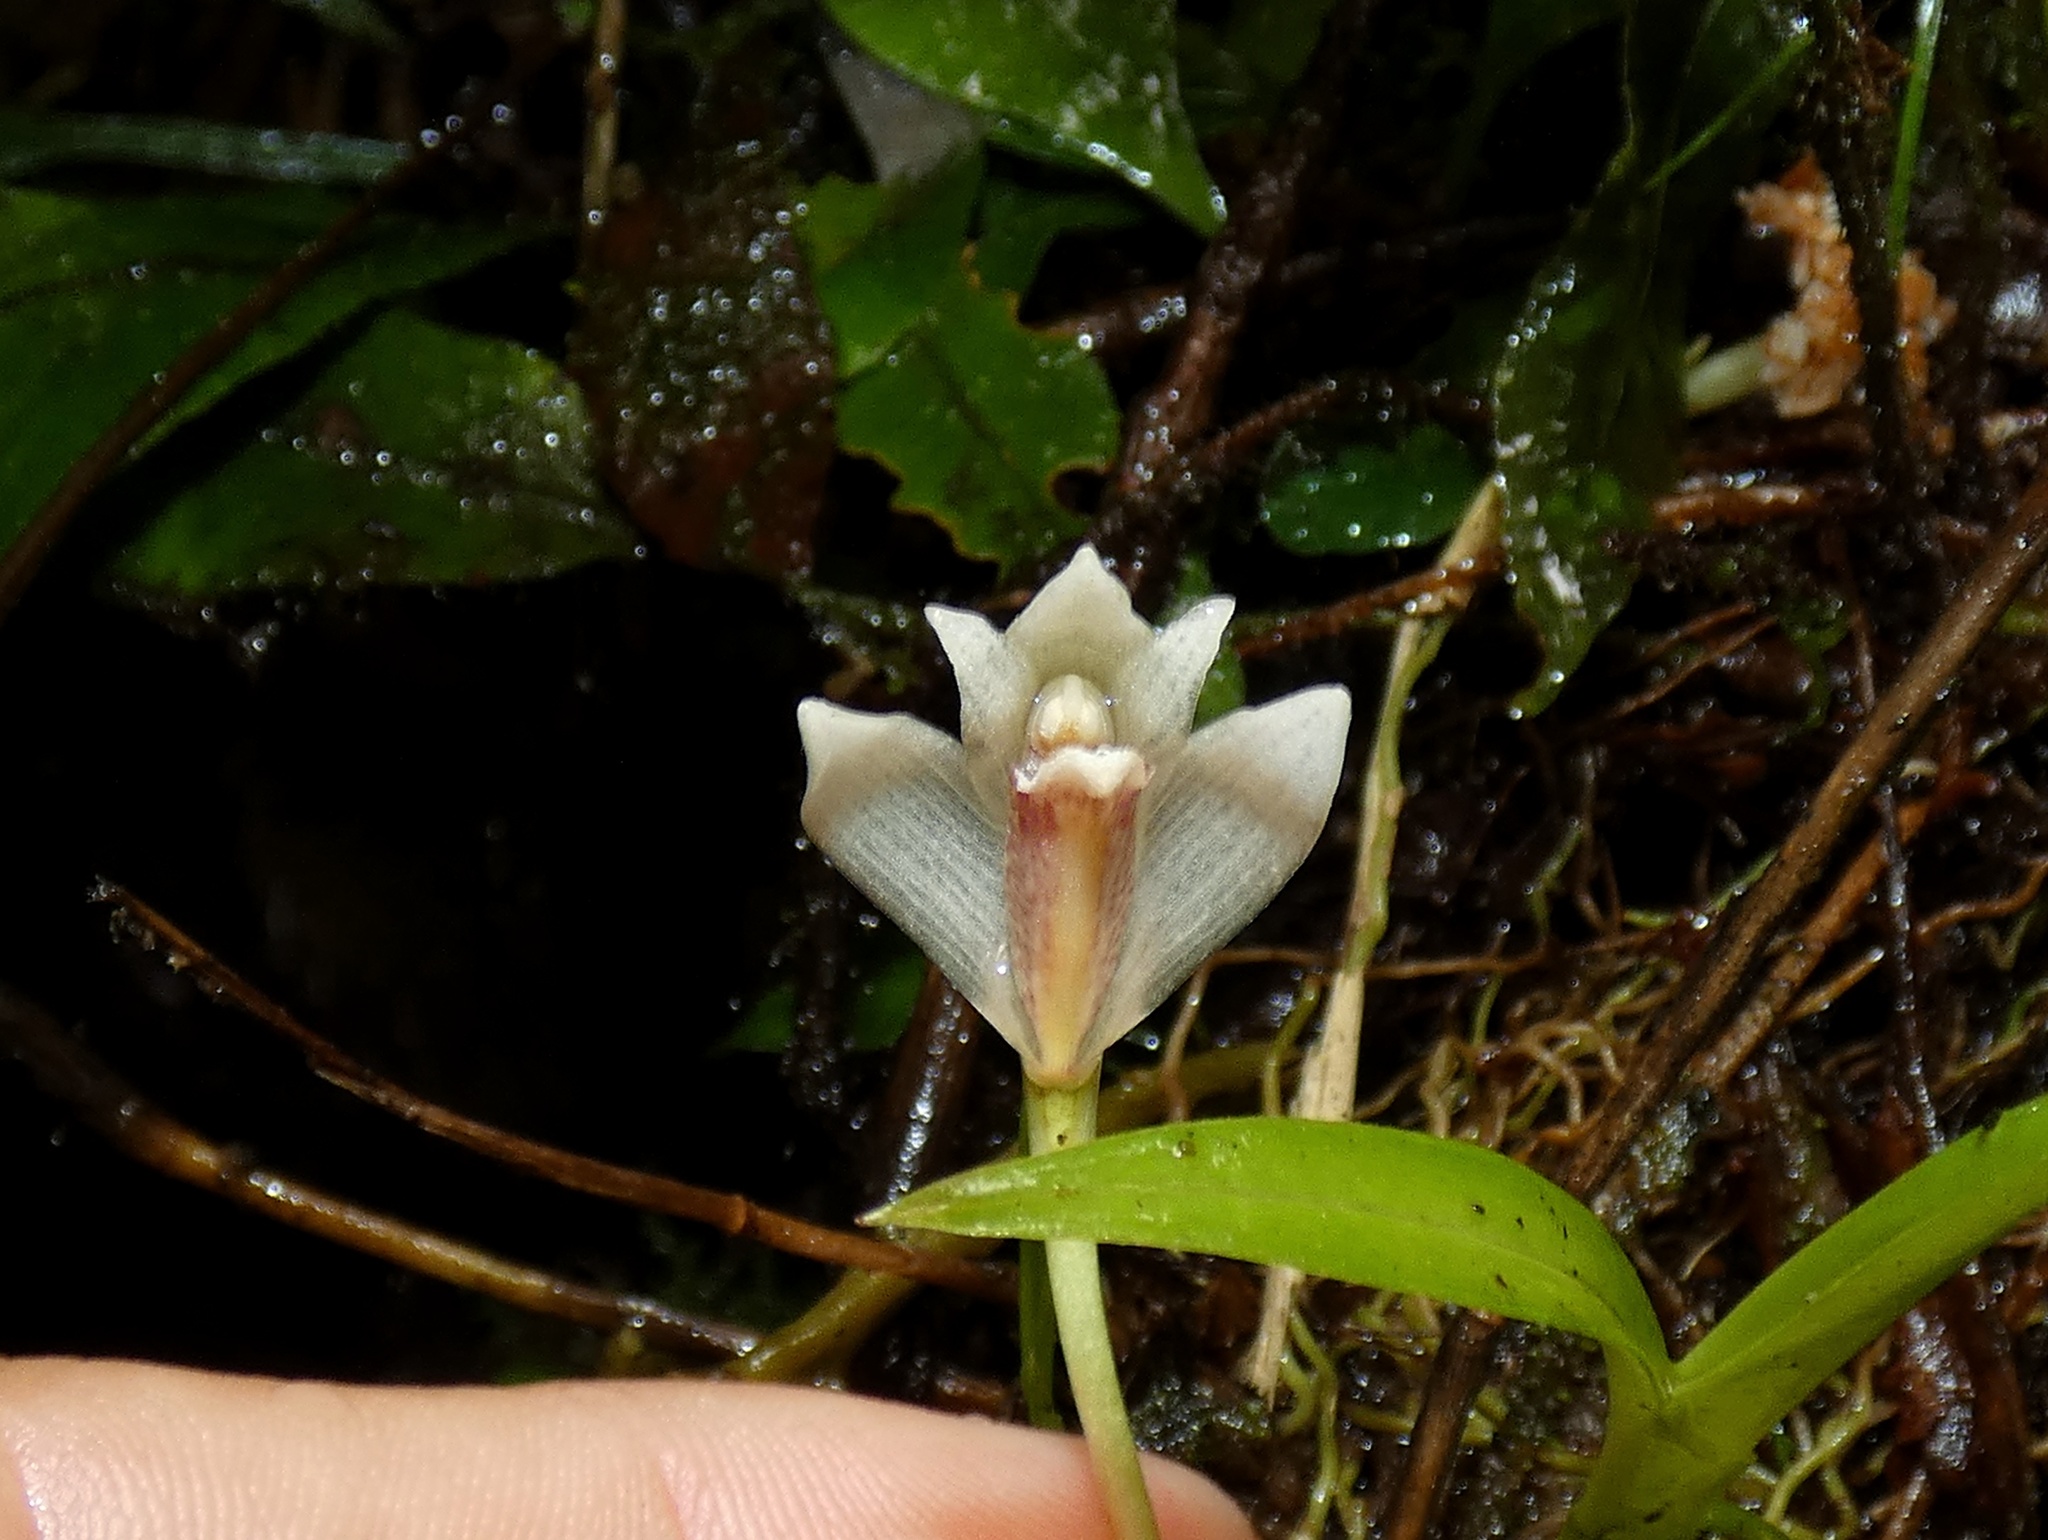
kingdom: Plantae
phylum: Tracheophyta
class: Liliopsida
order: Asparagales
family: Orchidaceae
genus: Maxillaria
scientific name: Maxillaria angustissima
